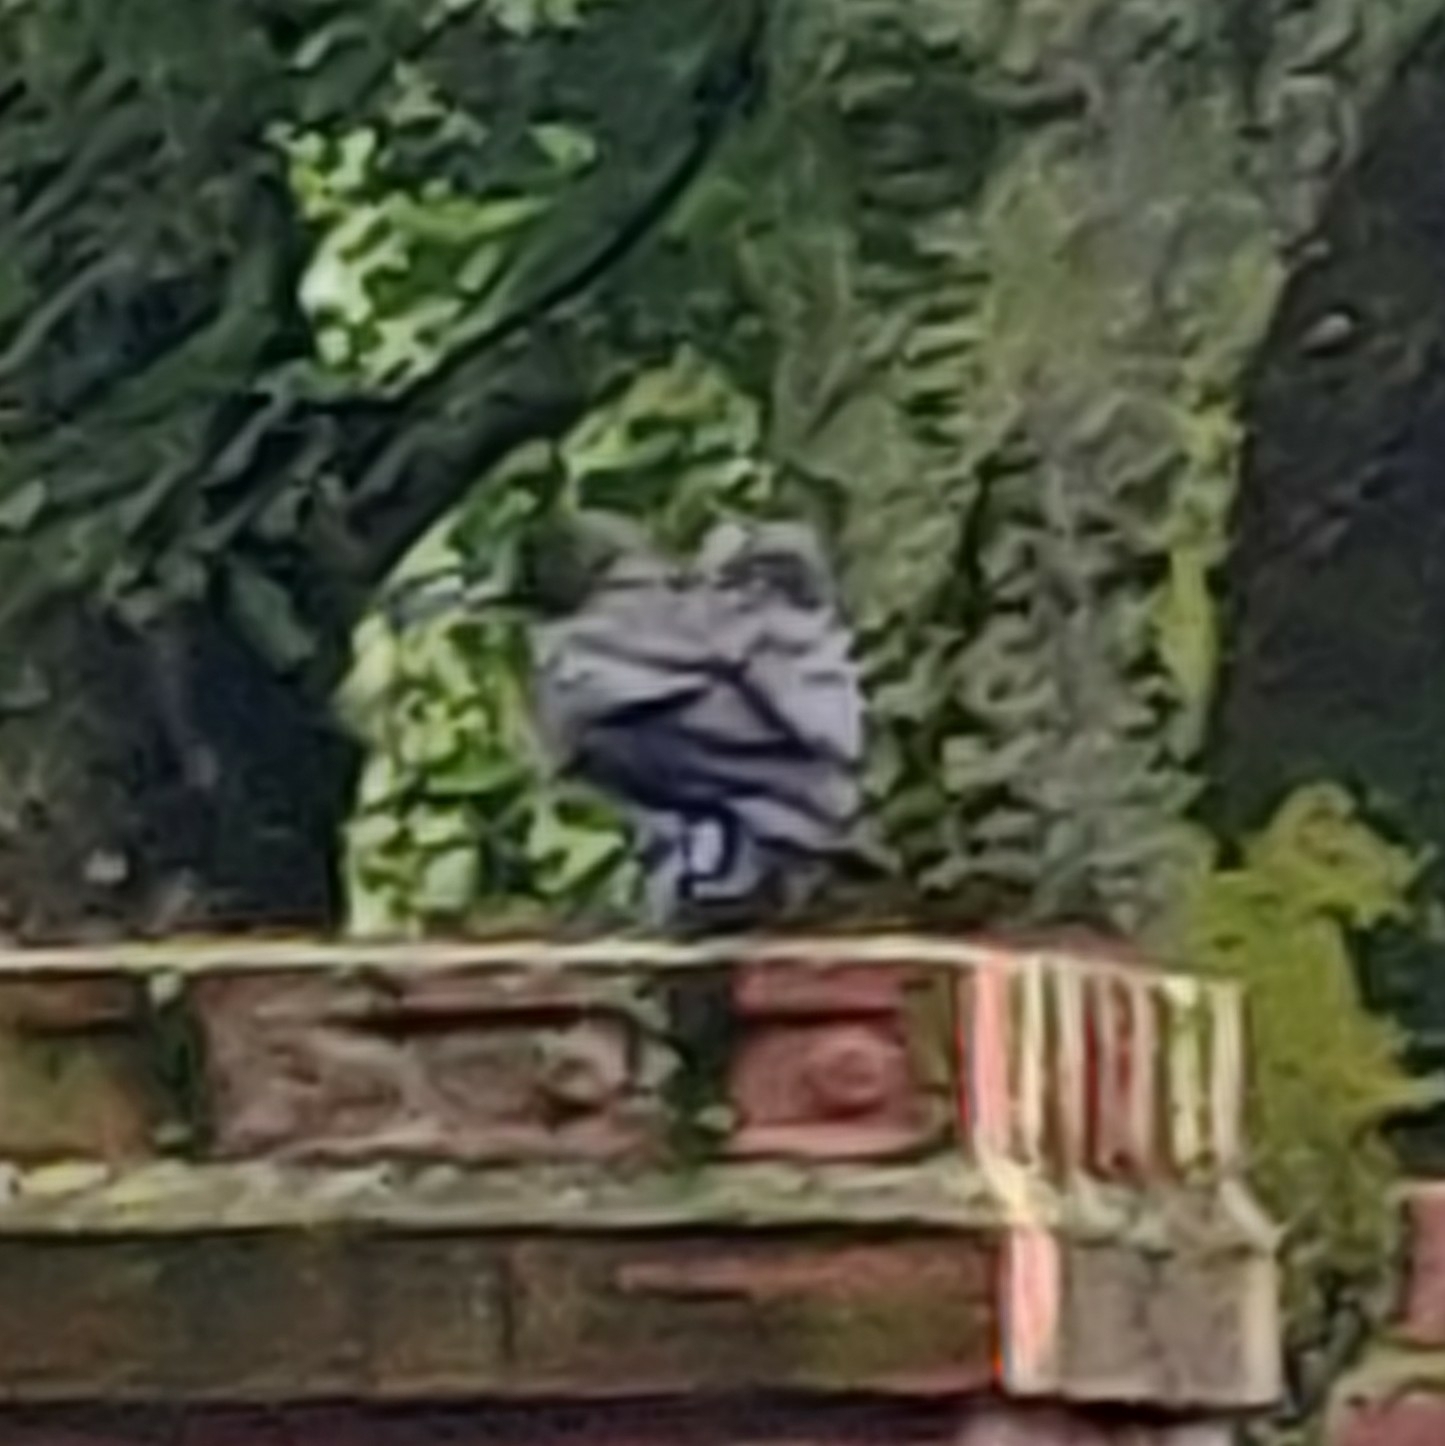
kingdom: Animalia
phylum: Chordata
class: Aves
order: Passeriformes
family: Corvidae
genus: Coloeus
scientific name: Coloeus monedula
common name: Western jackdaw
